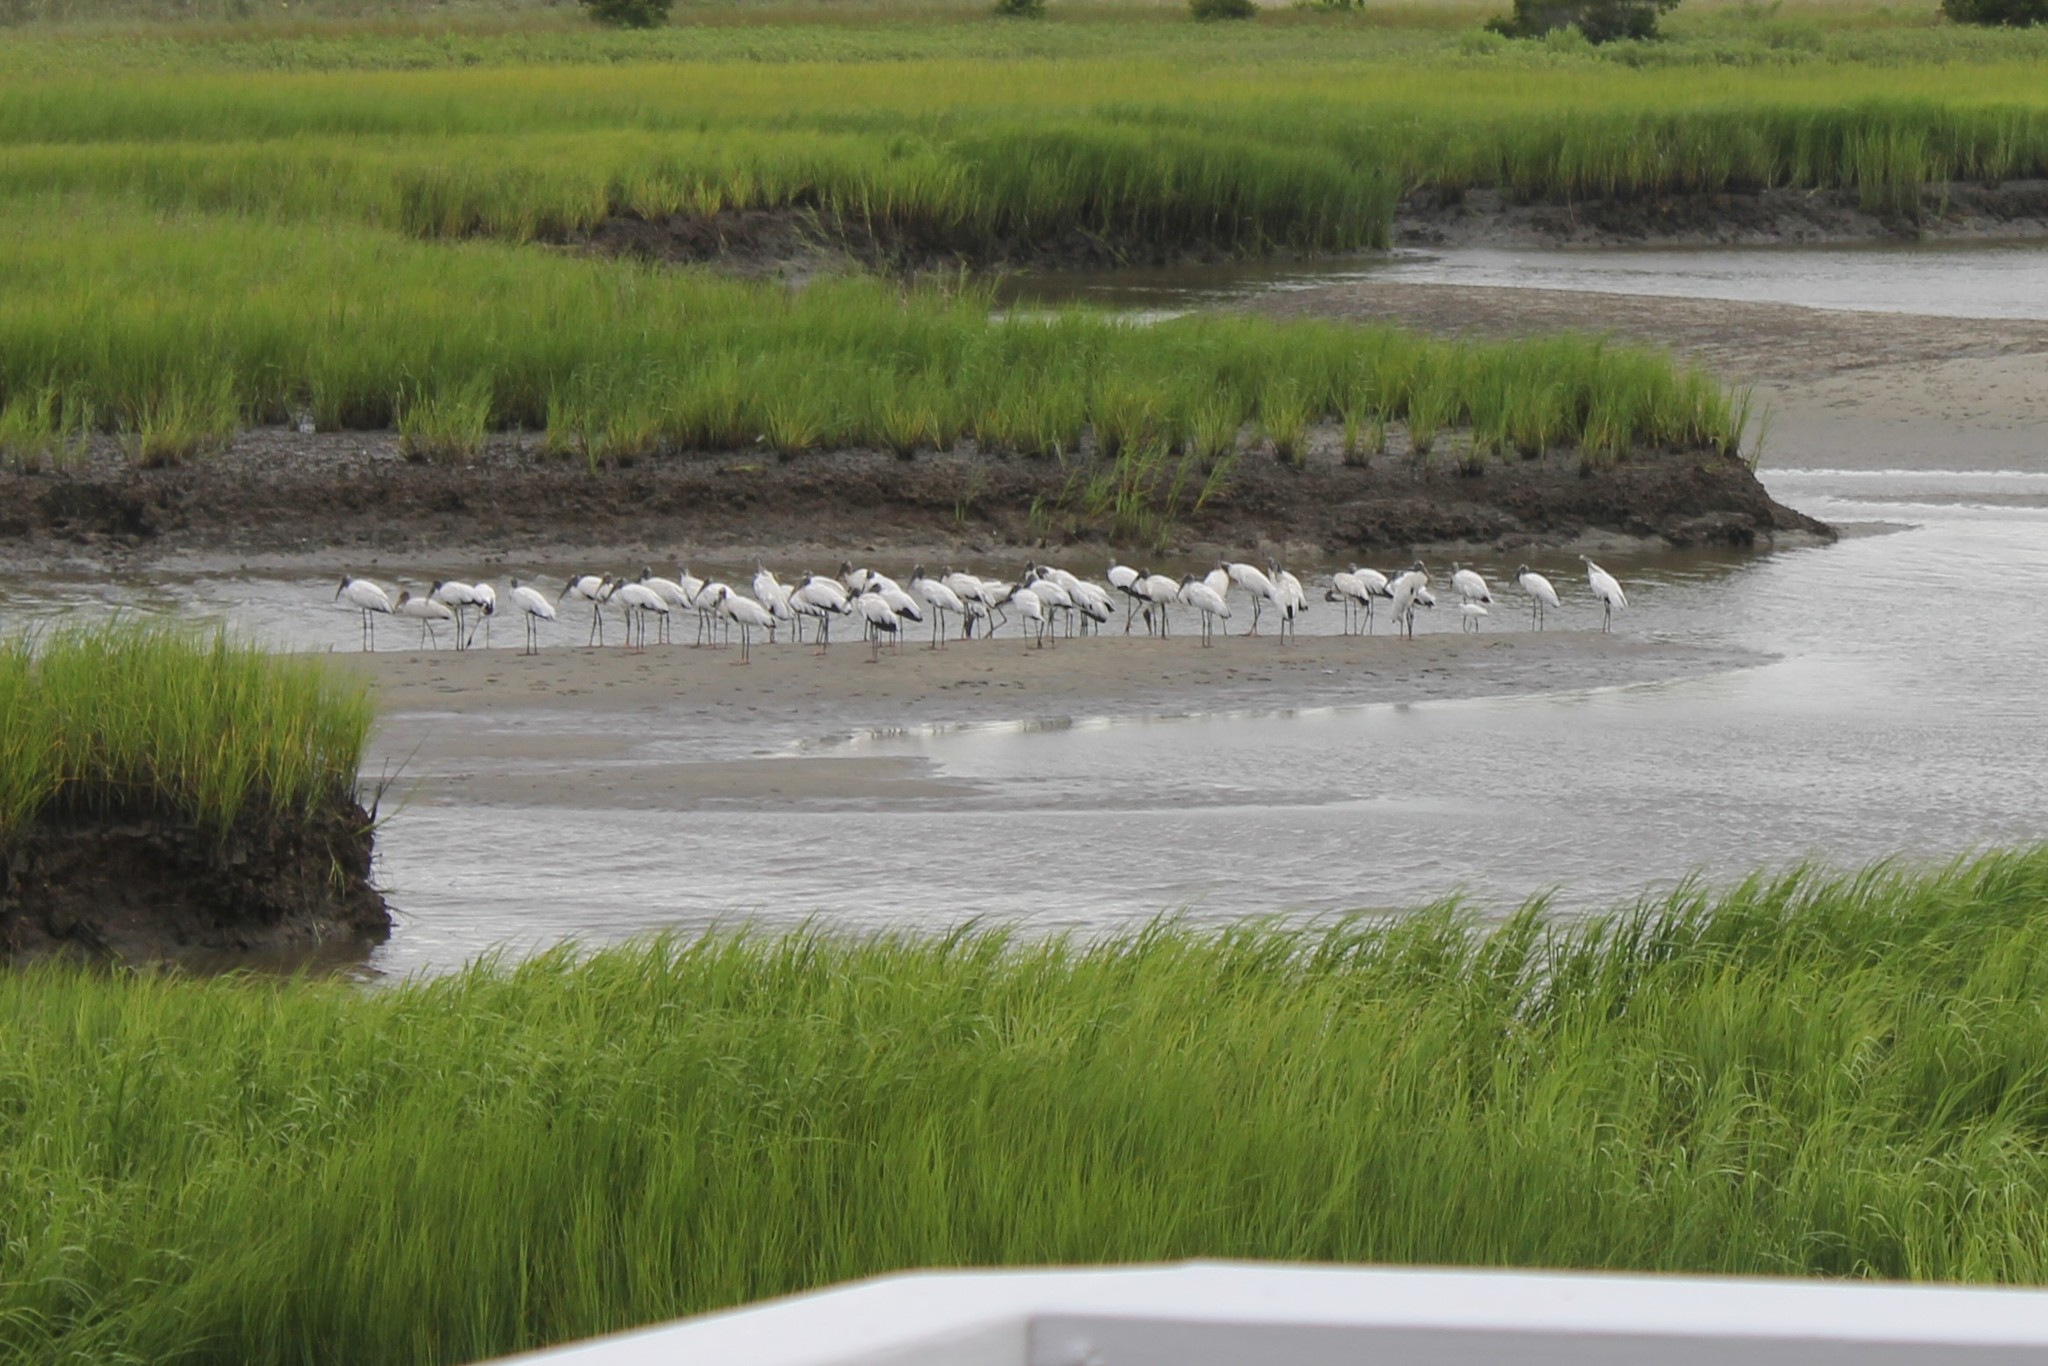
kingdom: Animalia
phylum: Chordata
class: Aves
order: Ciconiiformes
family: Ciconiidae
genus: Mycteria
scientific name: Mycteria americana
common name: Wood stork
